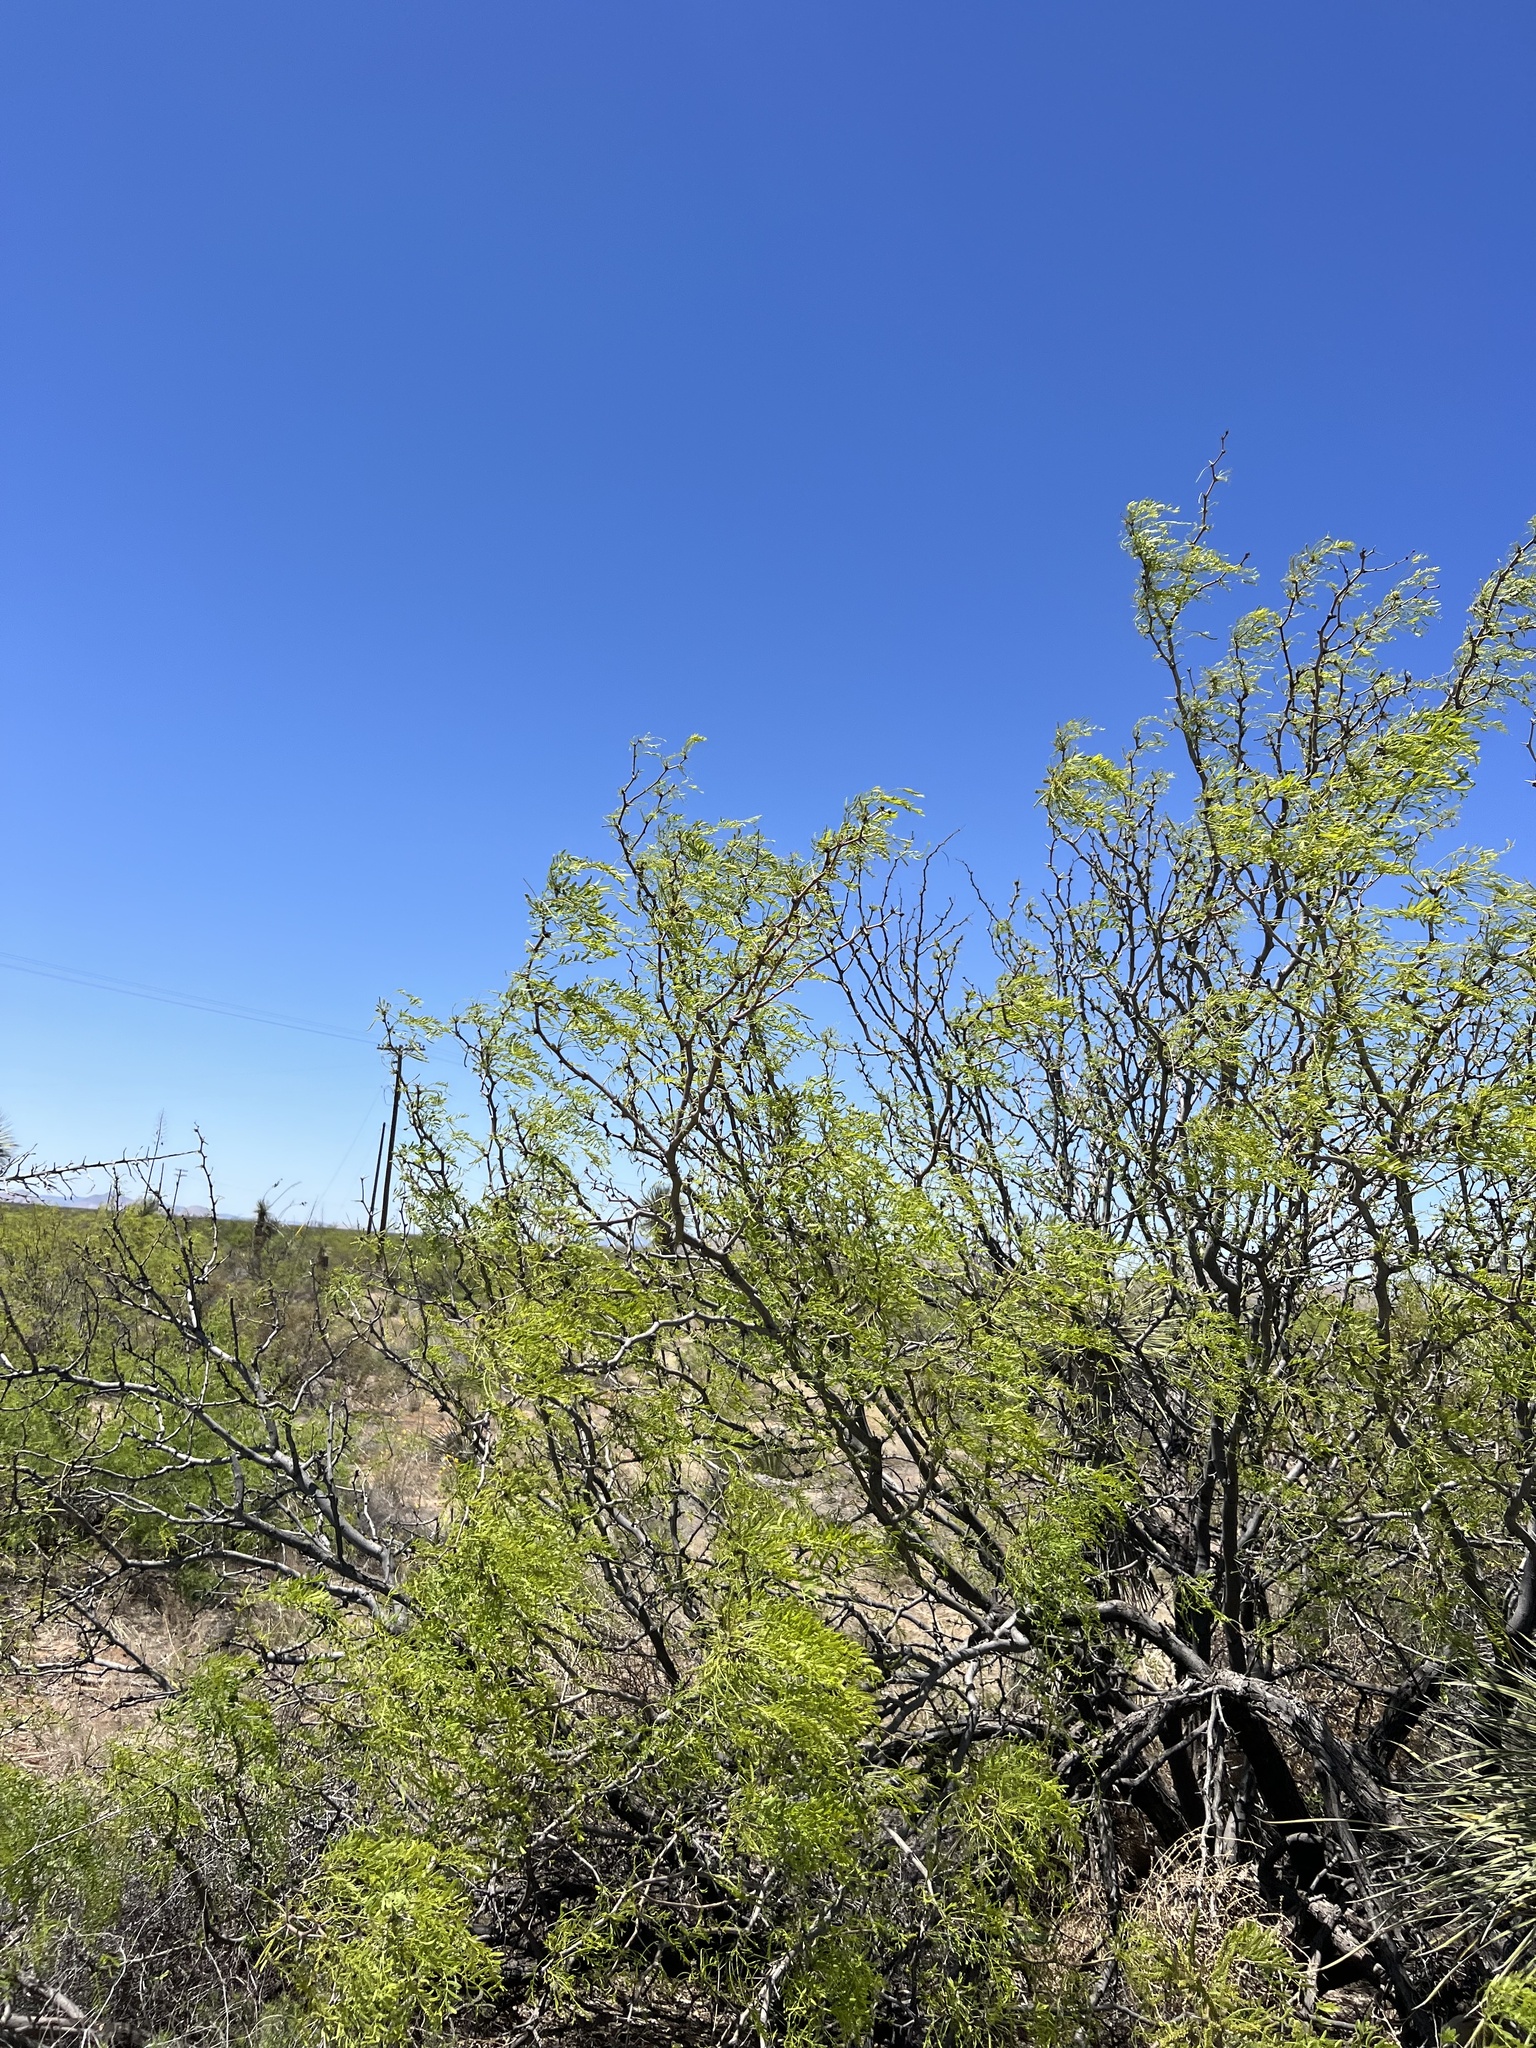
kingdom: Plantae
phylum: Tracheophyta
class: Magnoliopsida
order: Fabales
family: Fabaceae
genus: Prosopis
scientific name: Prosopis glandulosa
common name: Honey mesquite
